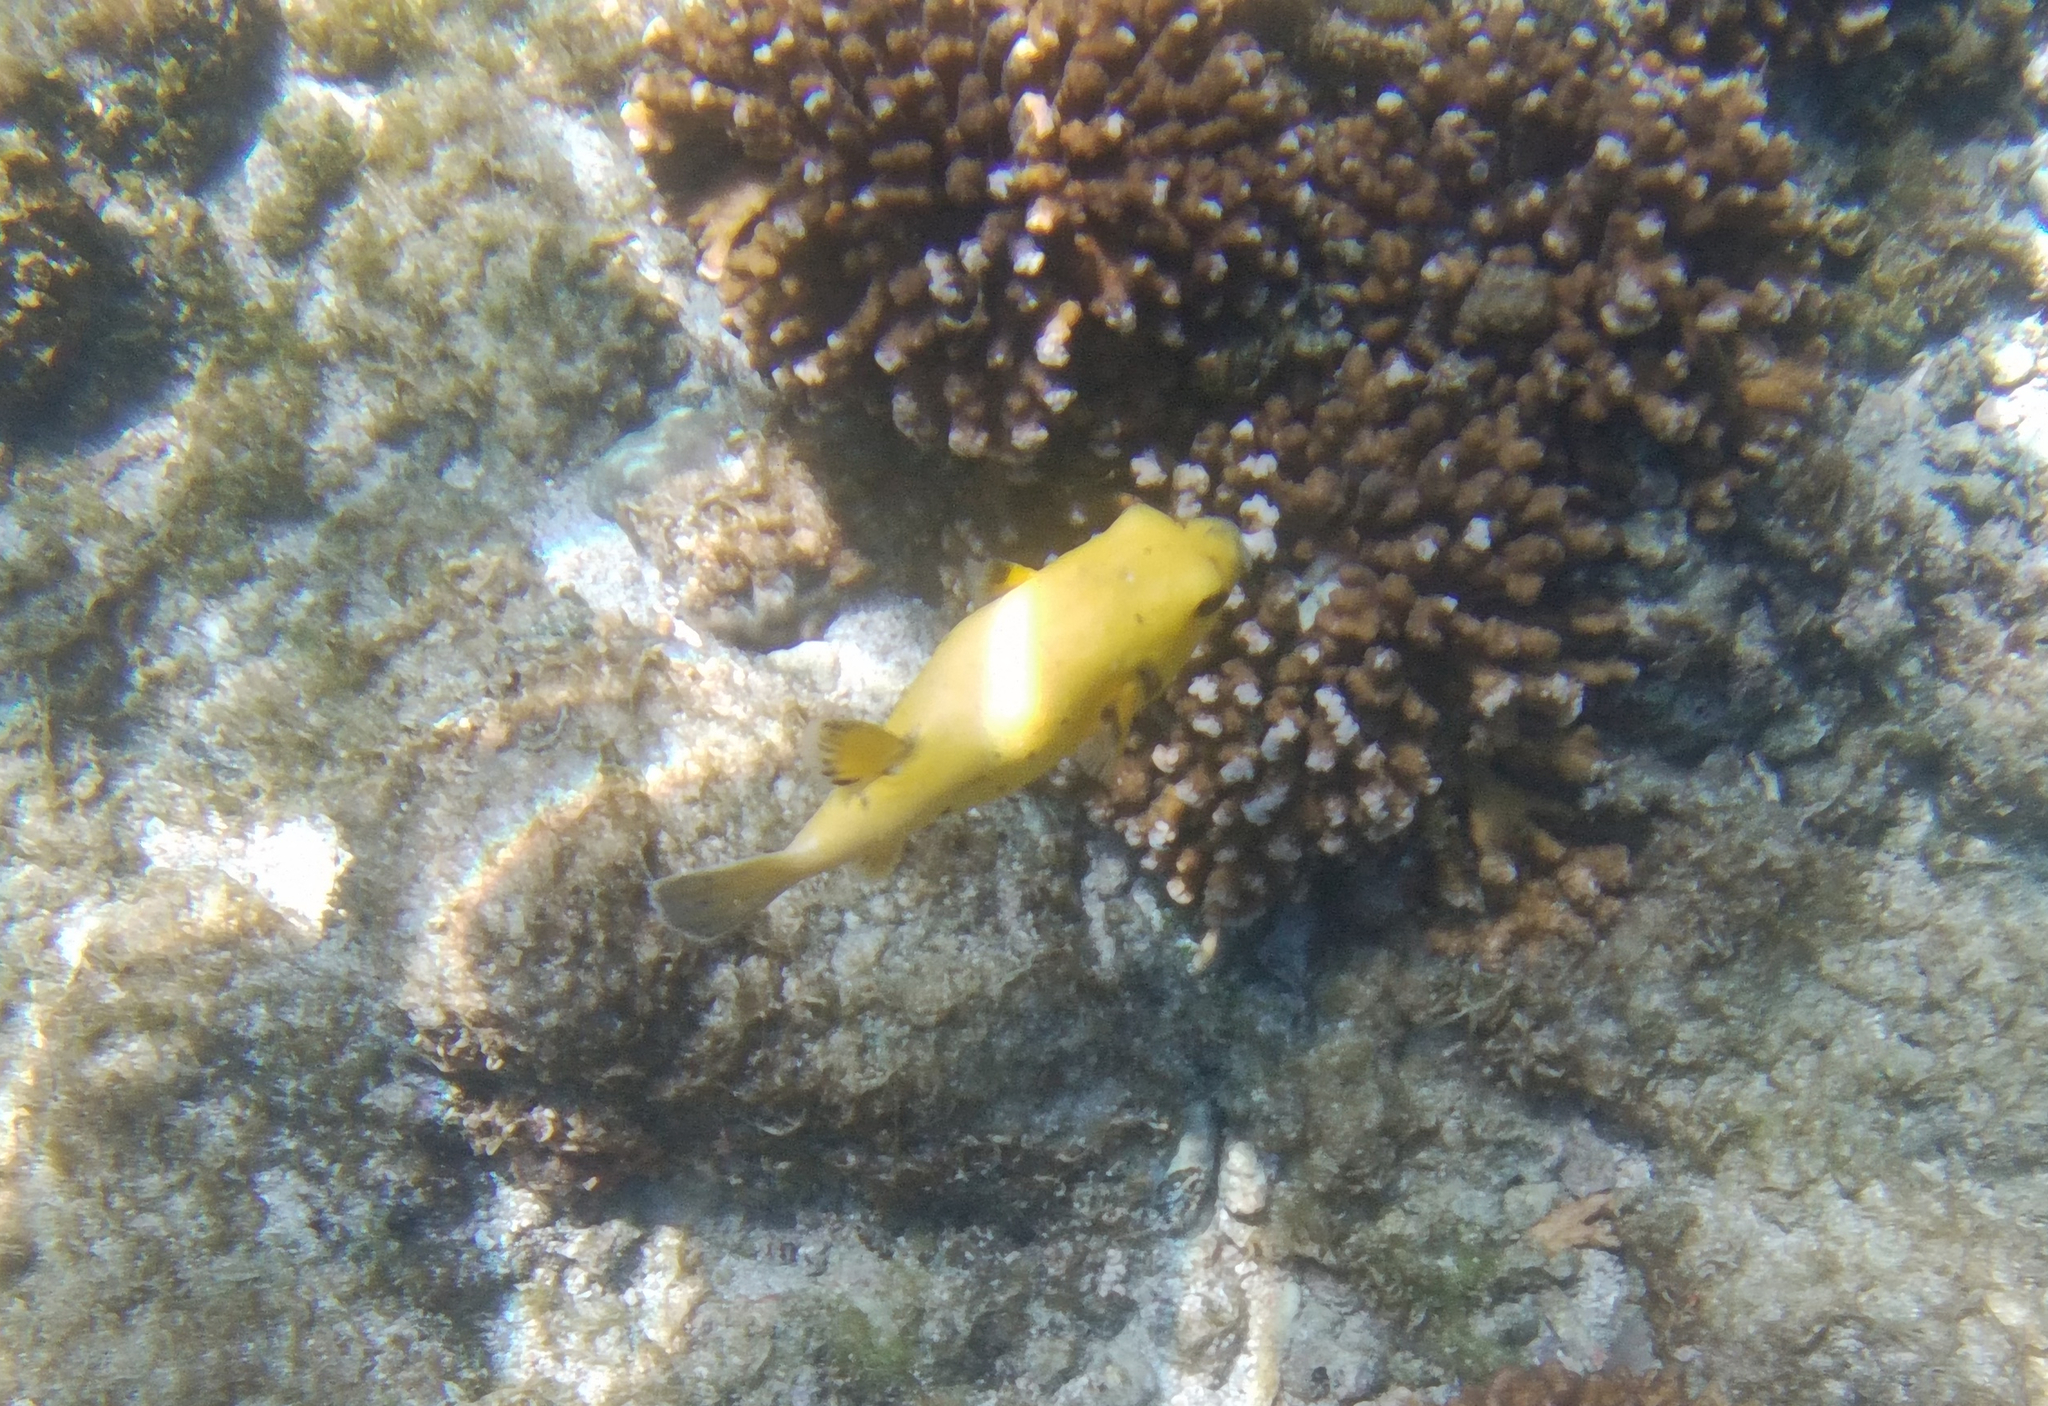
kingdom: Animalia
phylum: Chordata
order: Tetraodontiformes
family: Tetraodontidae
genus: Arothron
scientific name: Arothron meleagris
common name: Guinea-fowl pufferfish
